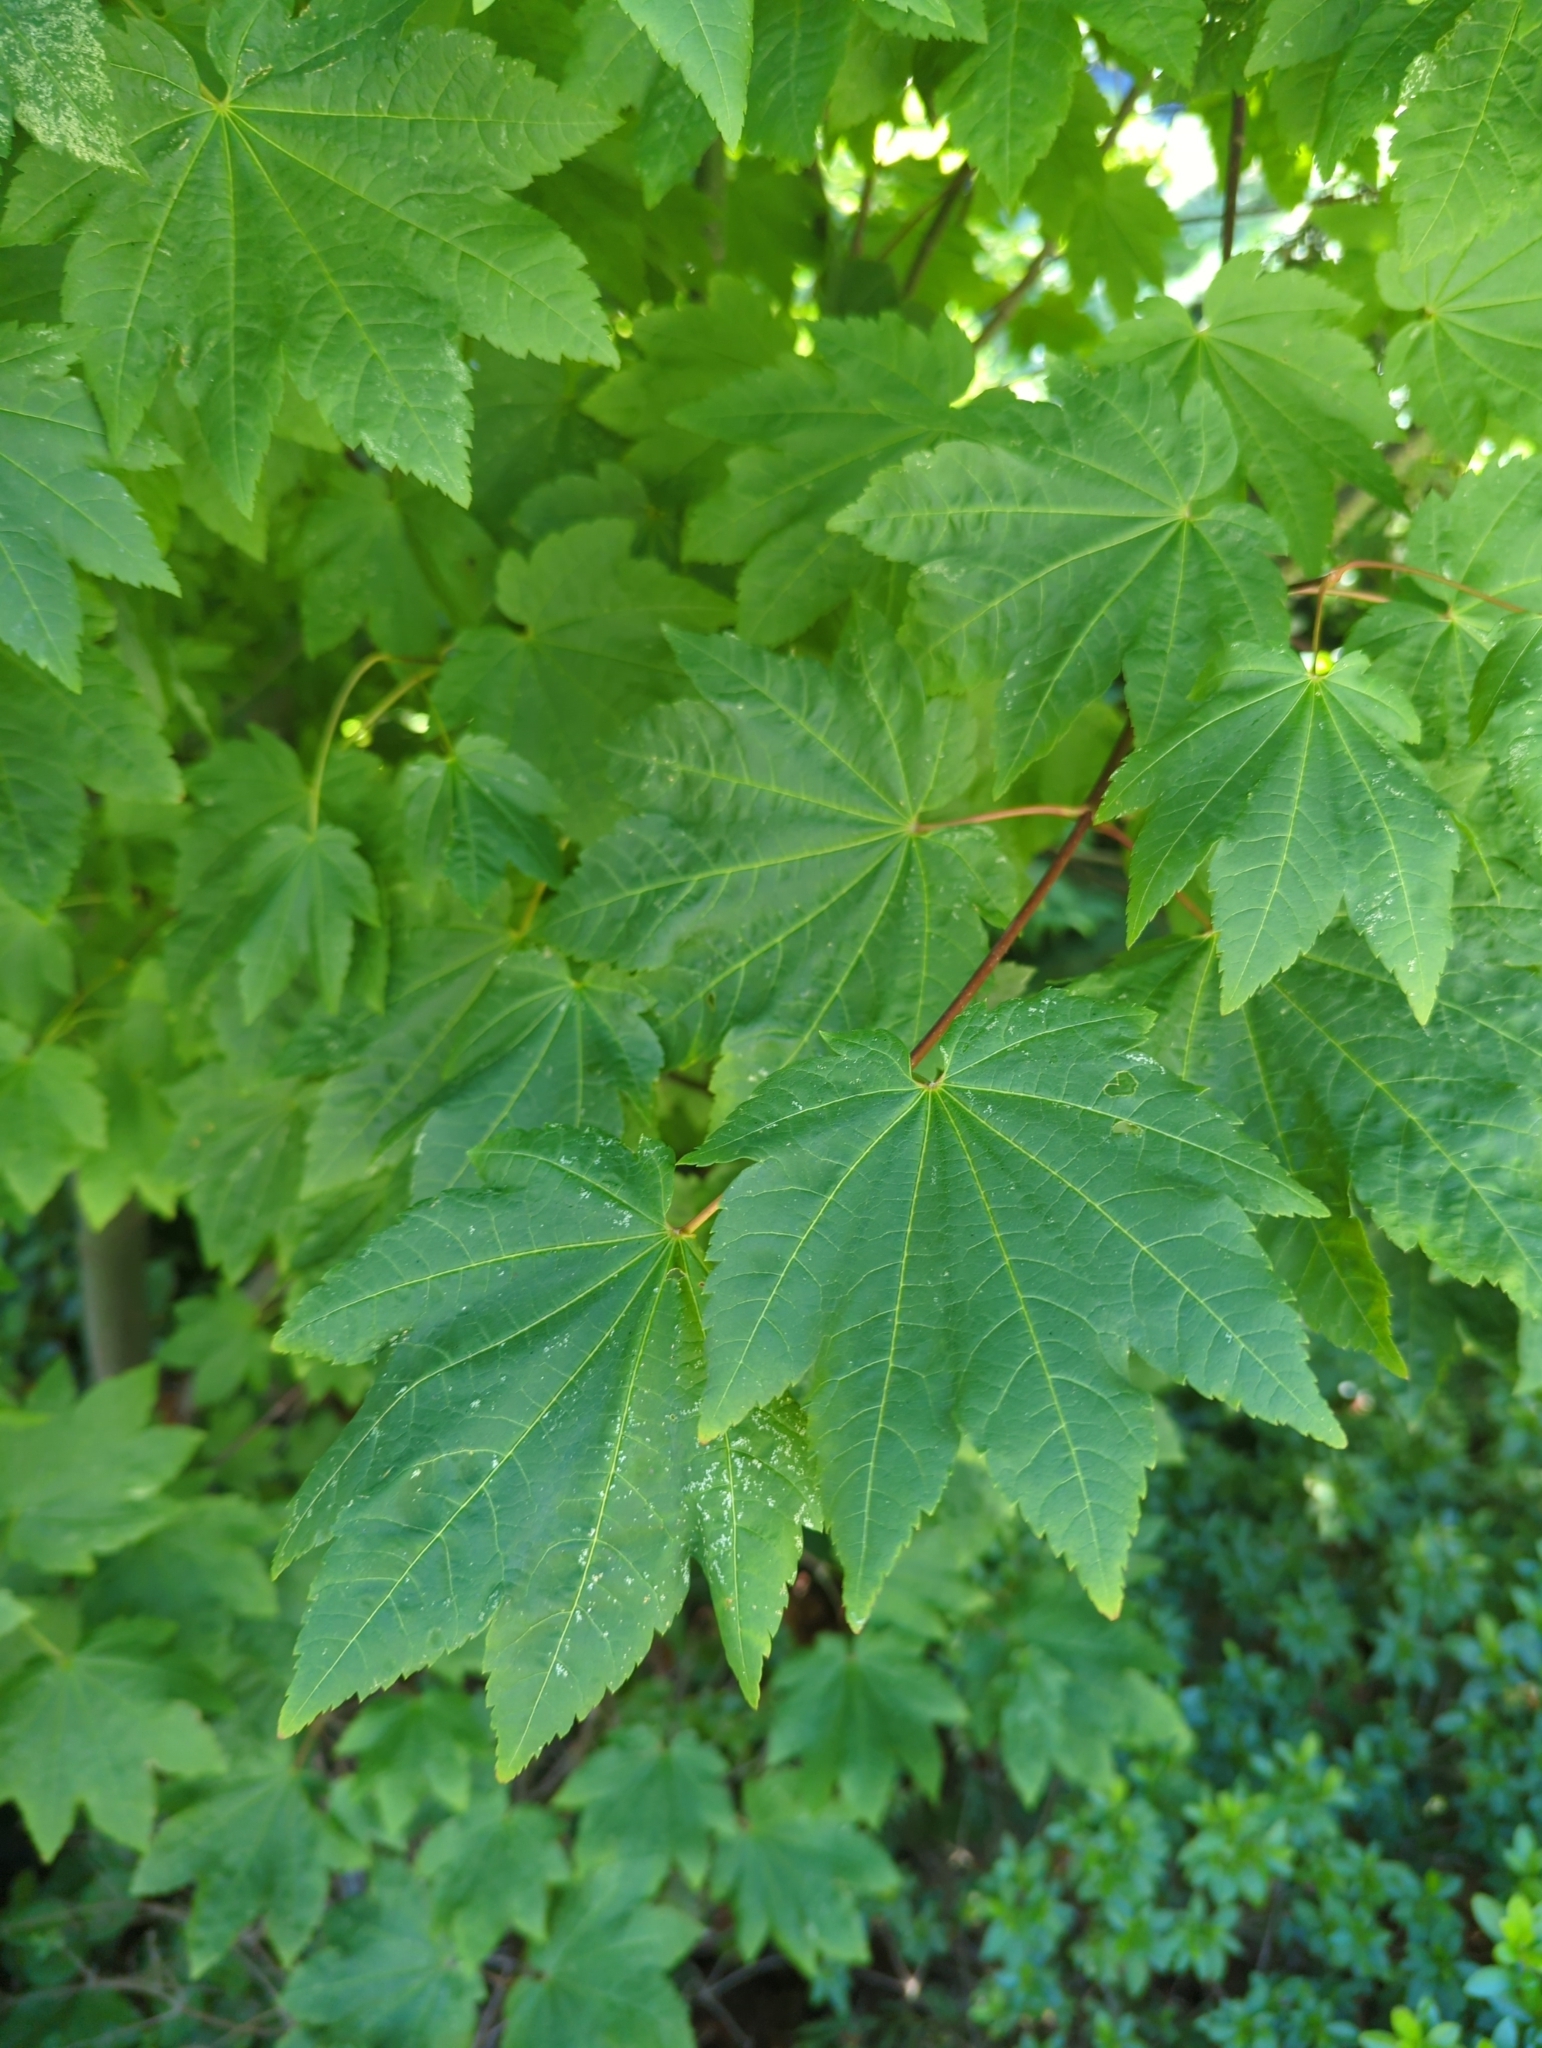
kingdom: Plantae
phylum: Tracheophyta
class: Magnoliopsida
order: Sapindales
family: Sapindaceae
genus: Acer
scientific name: Acer circinatum
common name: Vine maple
